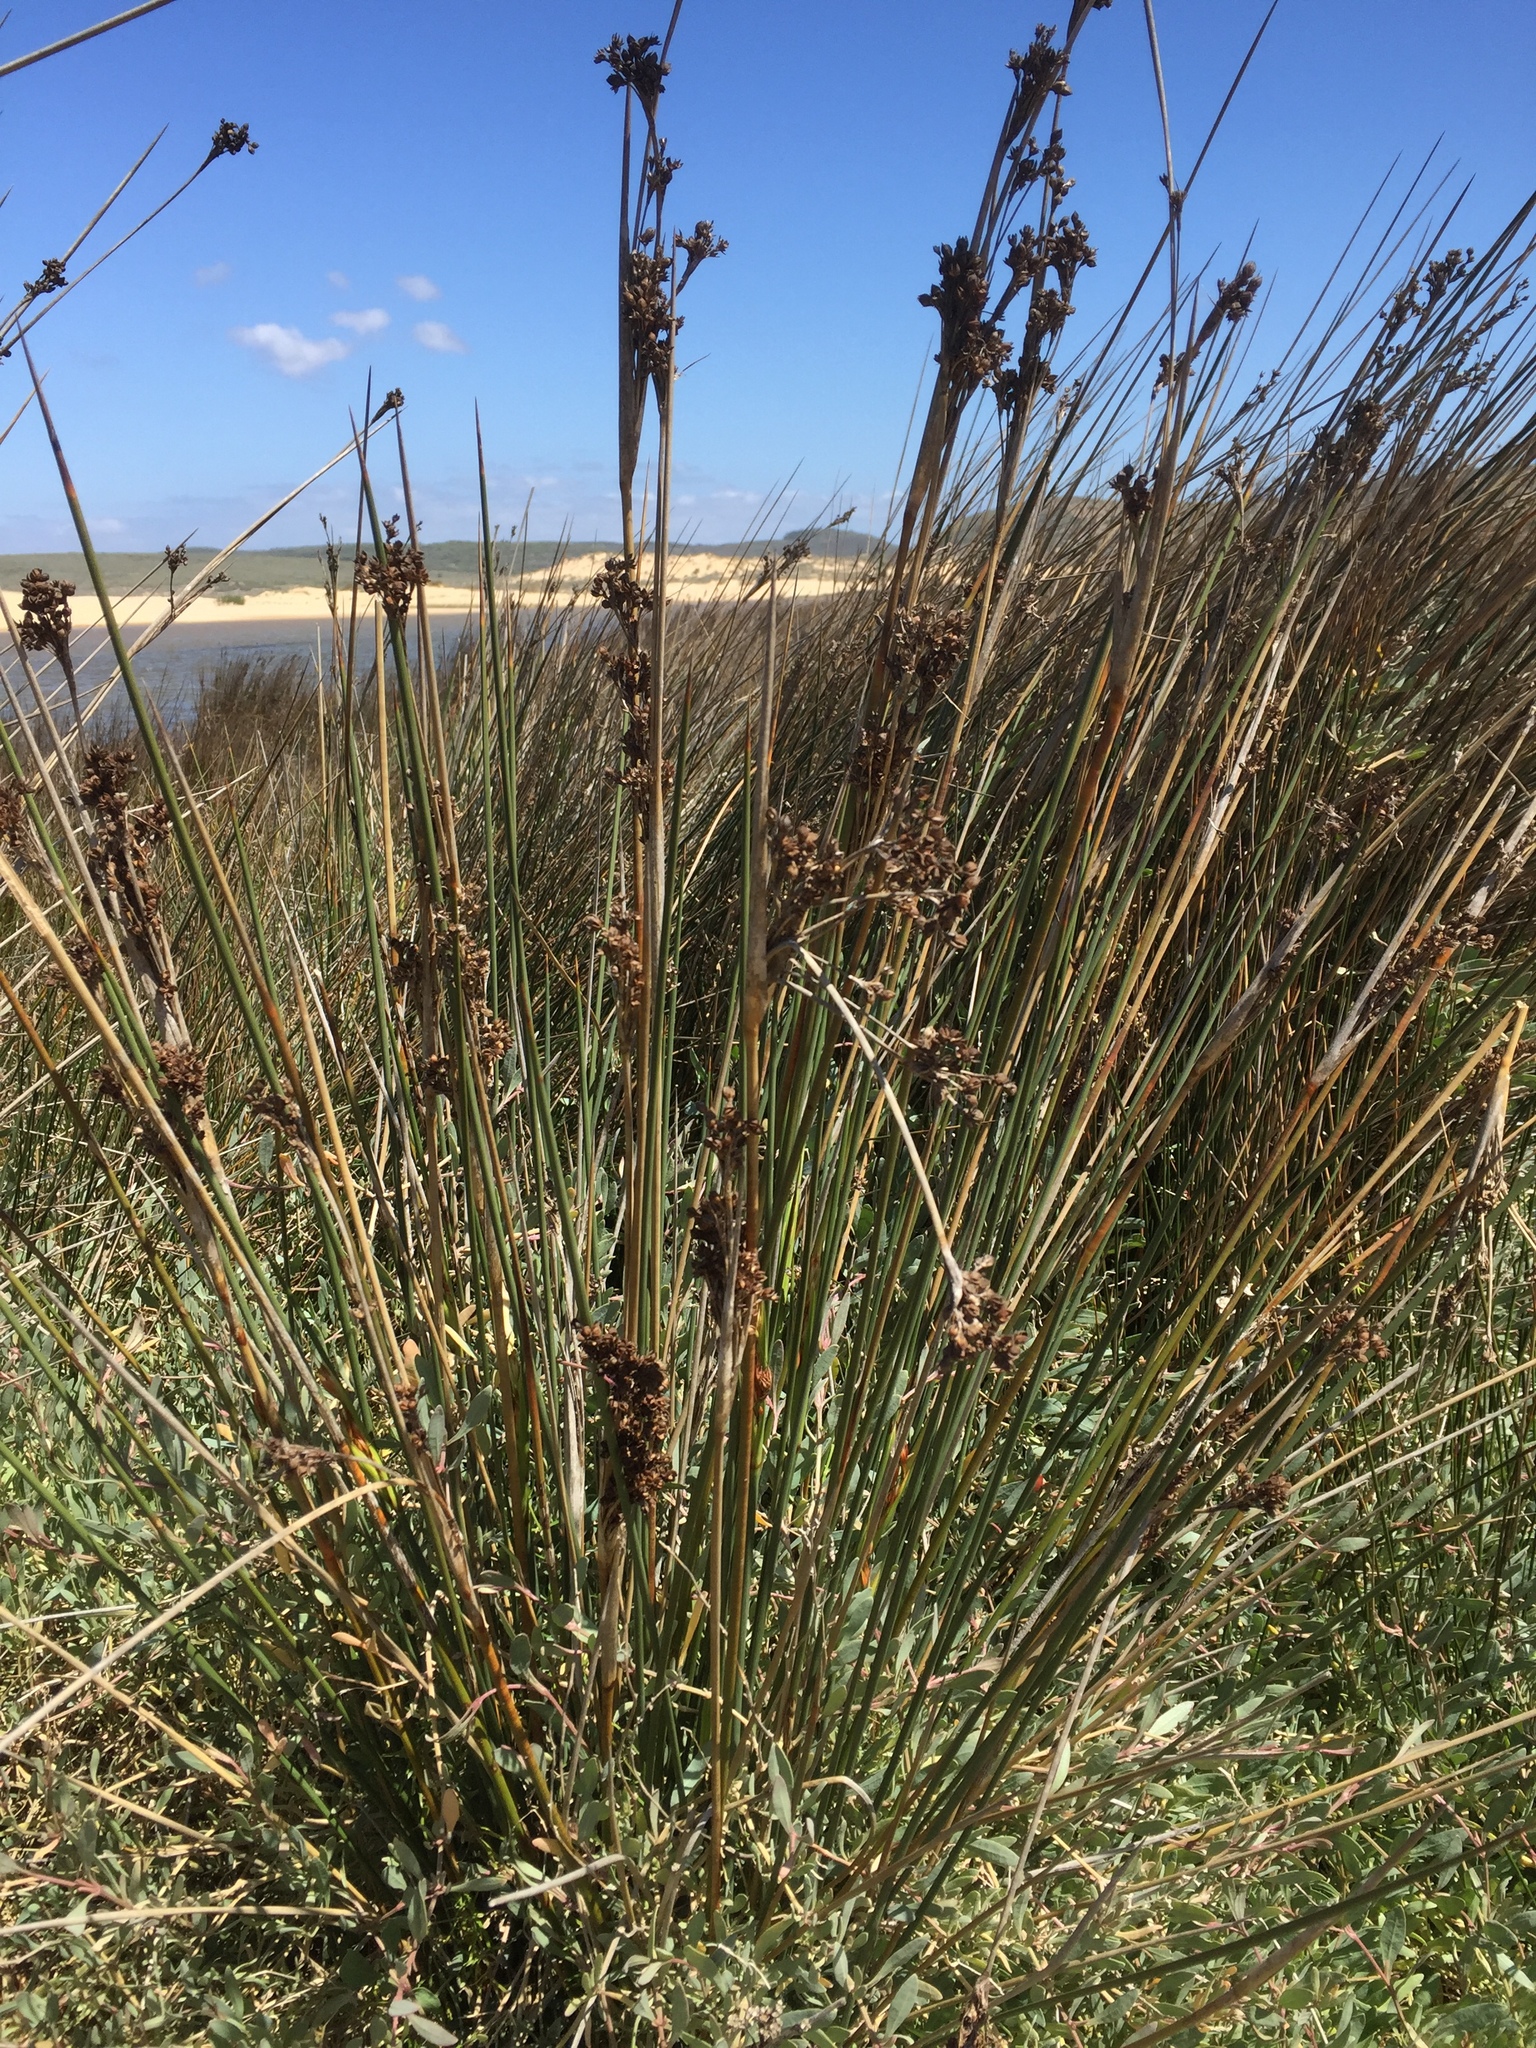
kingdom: Plantae
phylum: Tracheophyta
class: Liliopsida
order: Poales
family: Juncaceae
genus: Juncus
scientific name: Juncus maritimus
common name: Sea rush
